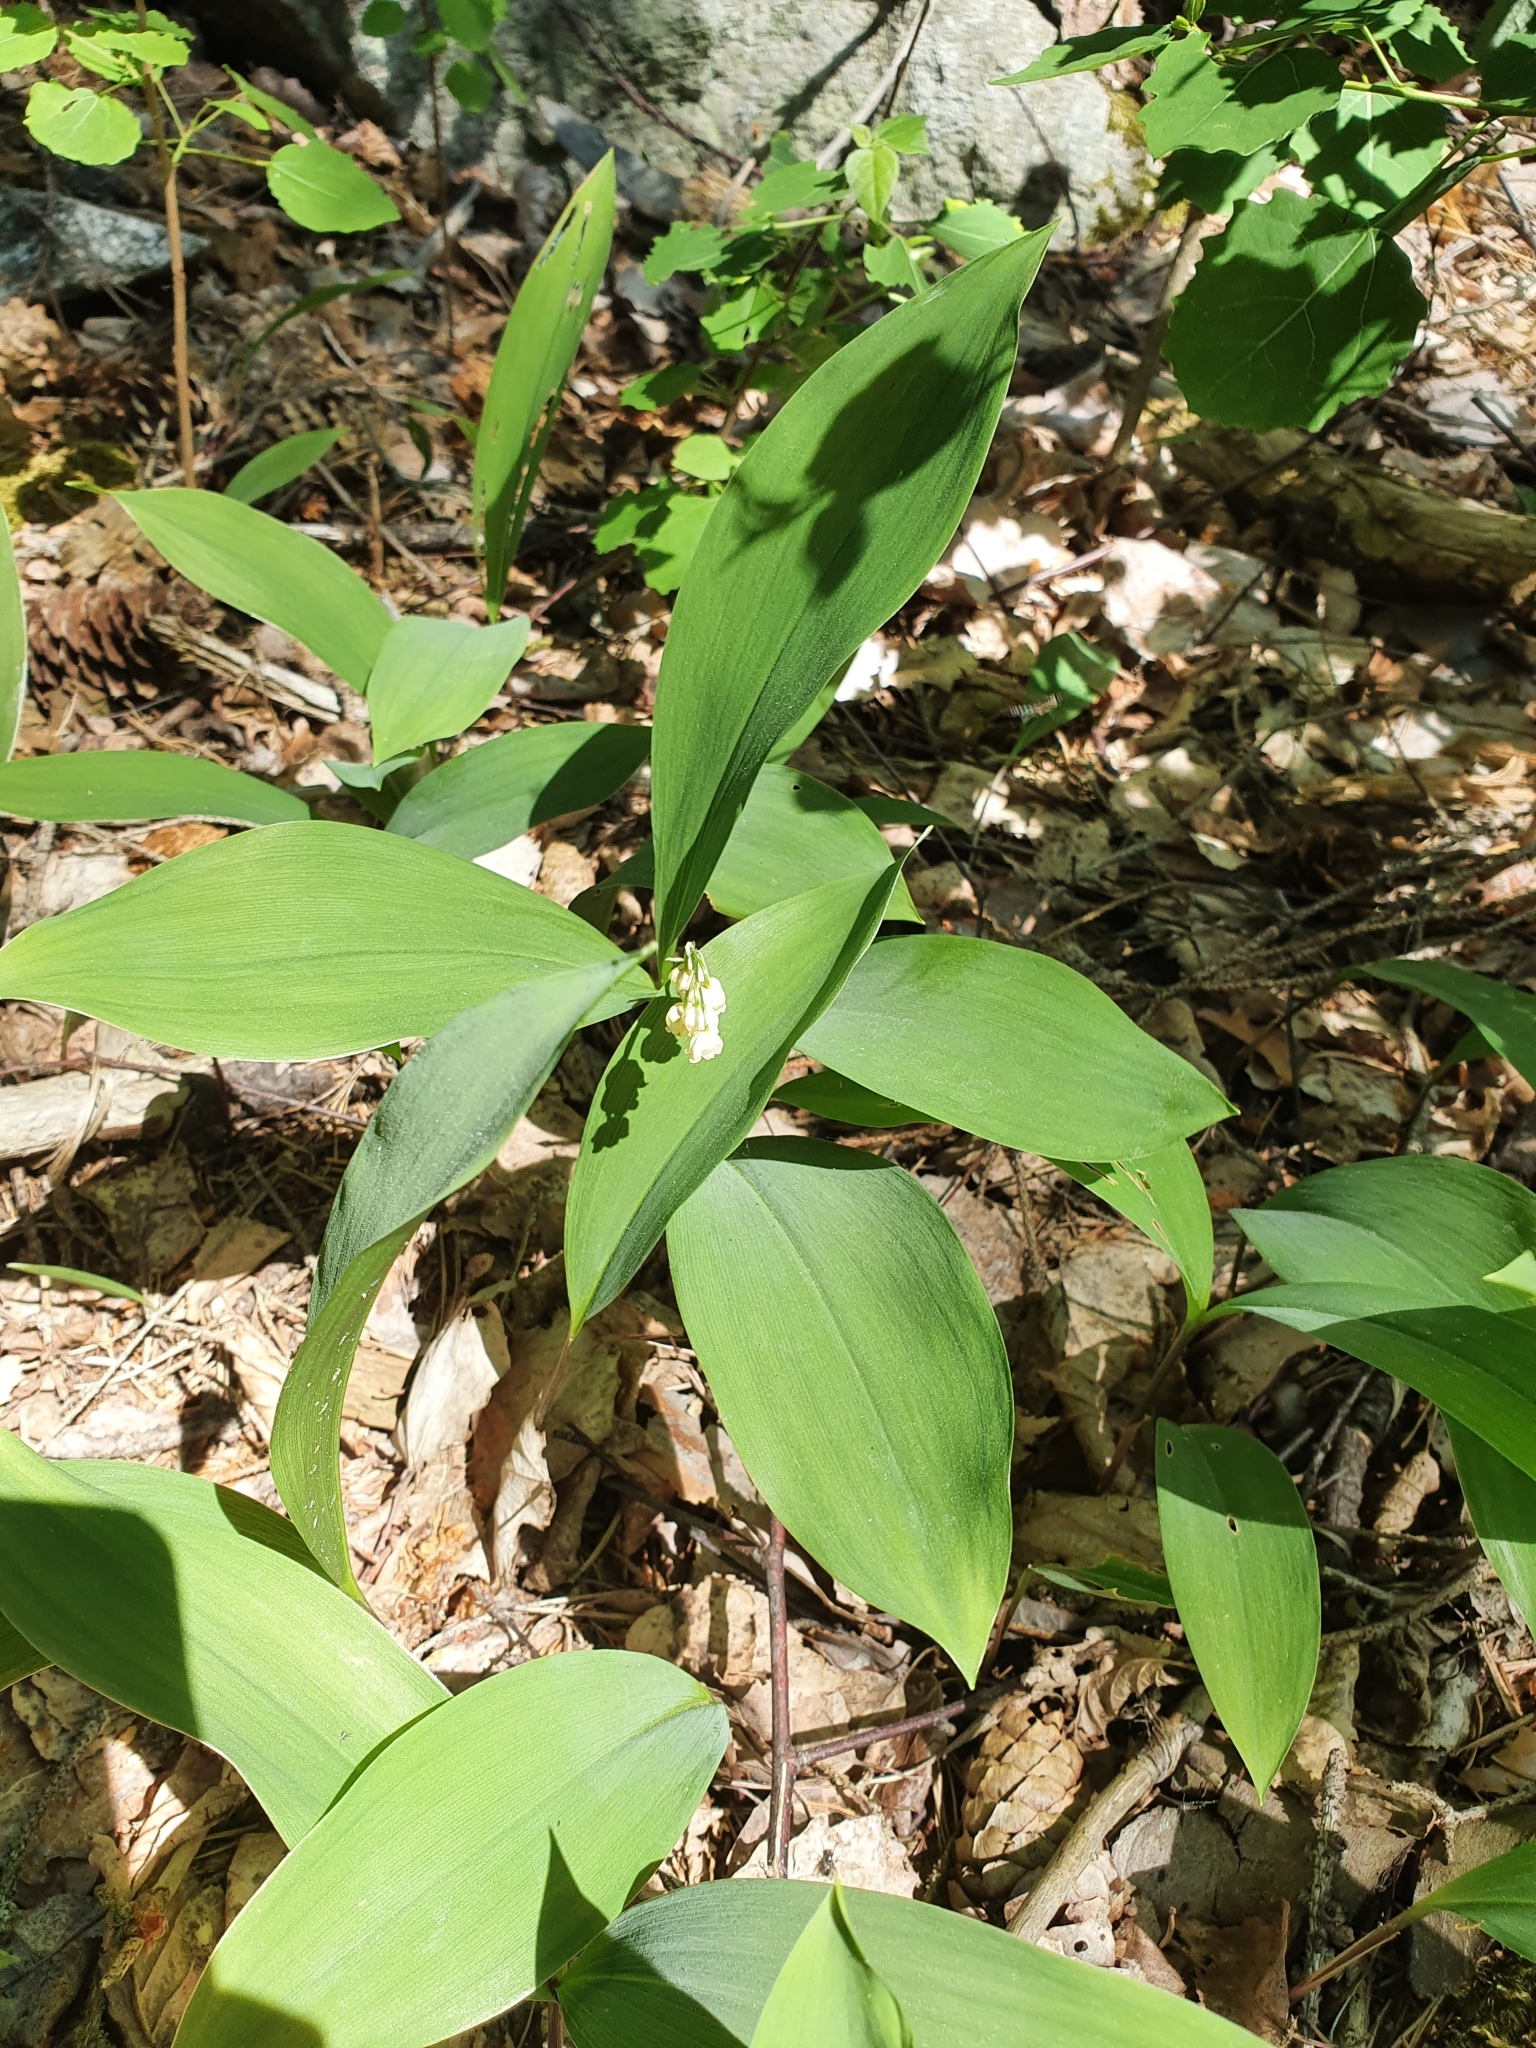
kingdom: Plantae
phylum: Tracheophyta
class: Liliopsida
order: Asparagales
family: Asparagaceae
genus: Convallaria
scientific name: Convallaria majalis
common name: Lily-of-the-valley
